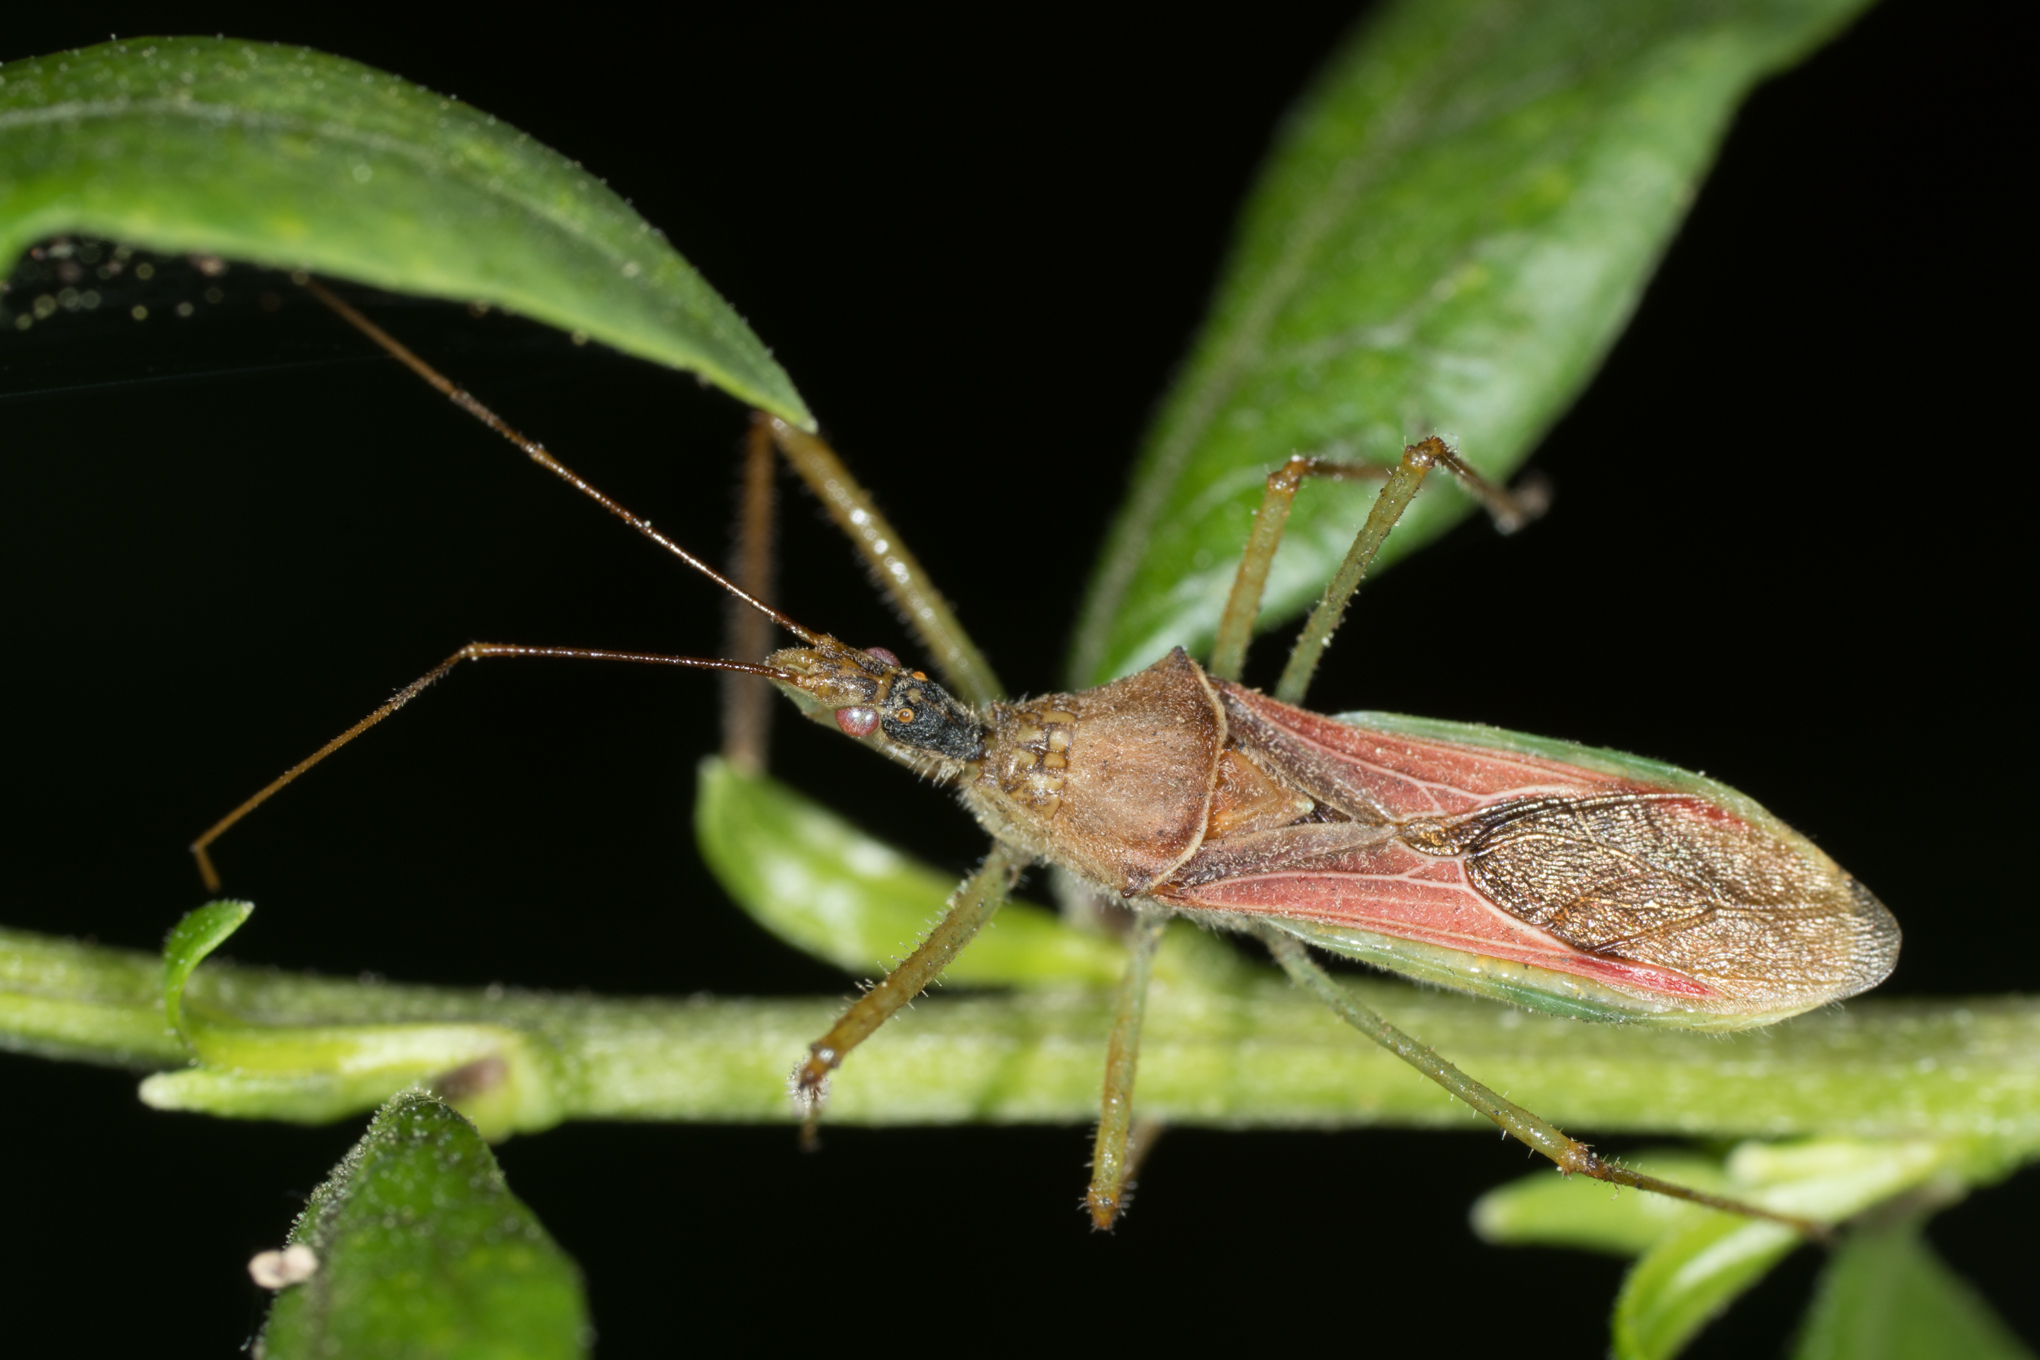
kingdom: Animalia
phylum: Arthropoda
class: Insecta
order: Hemiptera
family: Reduviidae
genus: Zelus
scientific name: Zelus renardii
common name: Assassin bug
